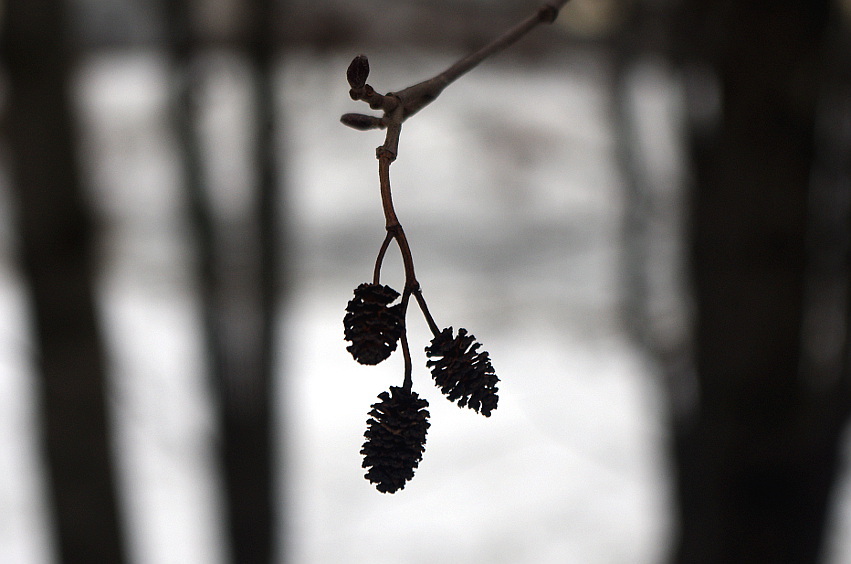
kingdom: Plantae
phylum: Tracheophyta
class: Magnoliopsida
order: Fagales
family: Betulaceae
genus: Alnus
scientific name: Alnus glutinosa
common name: Black alder
